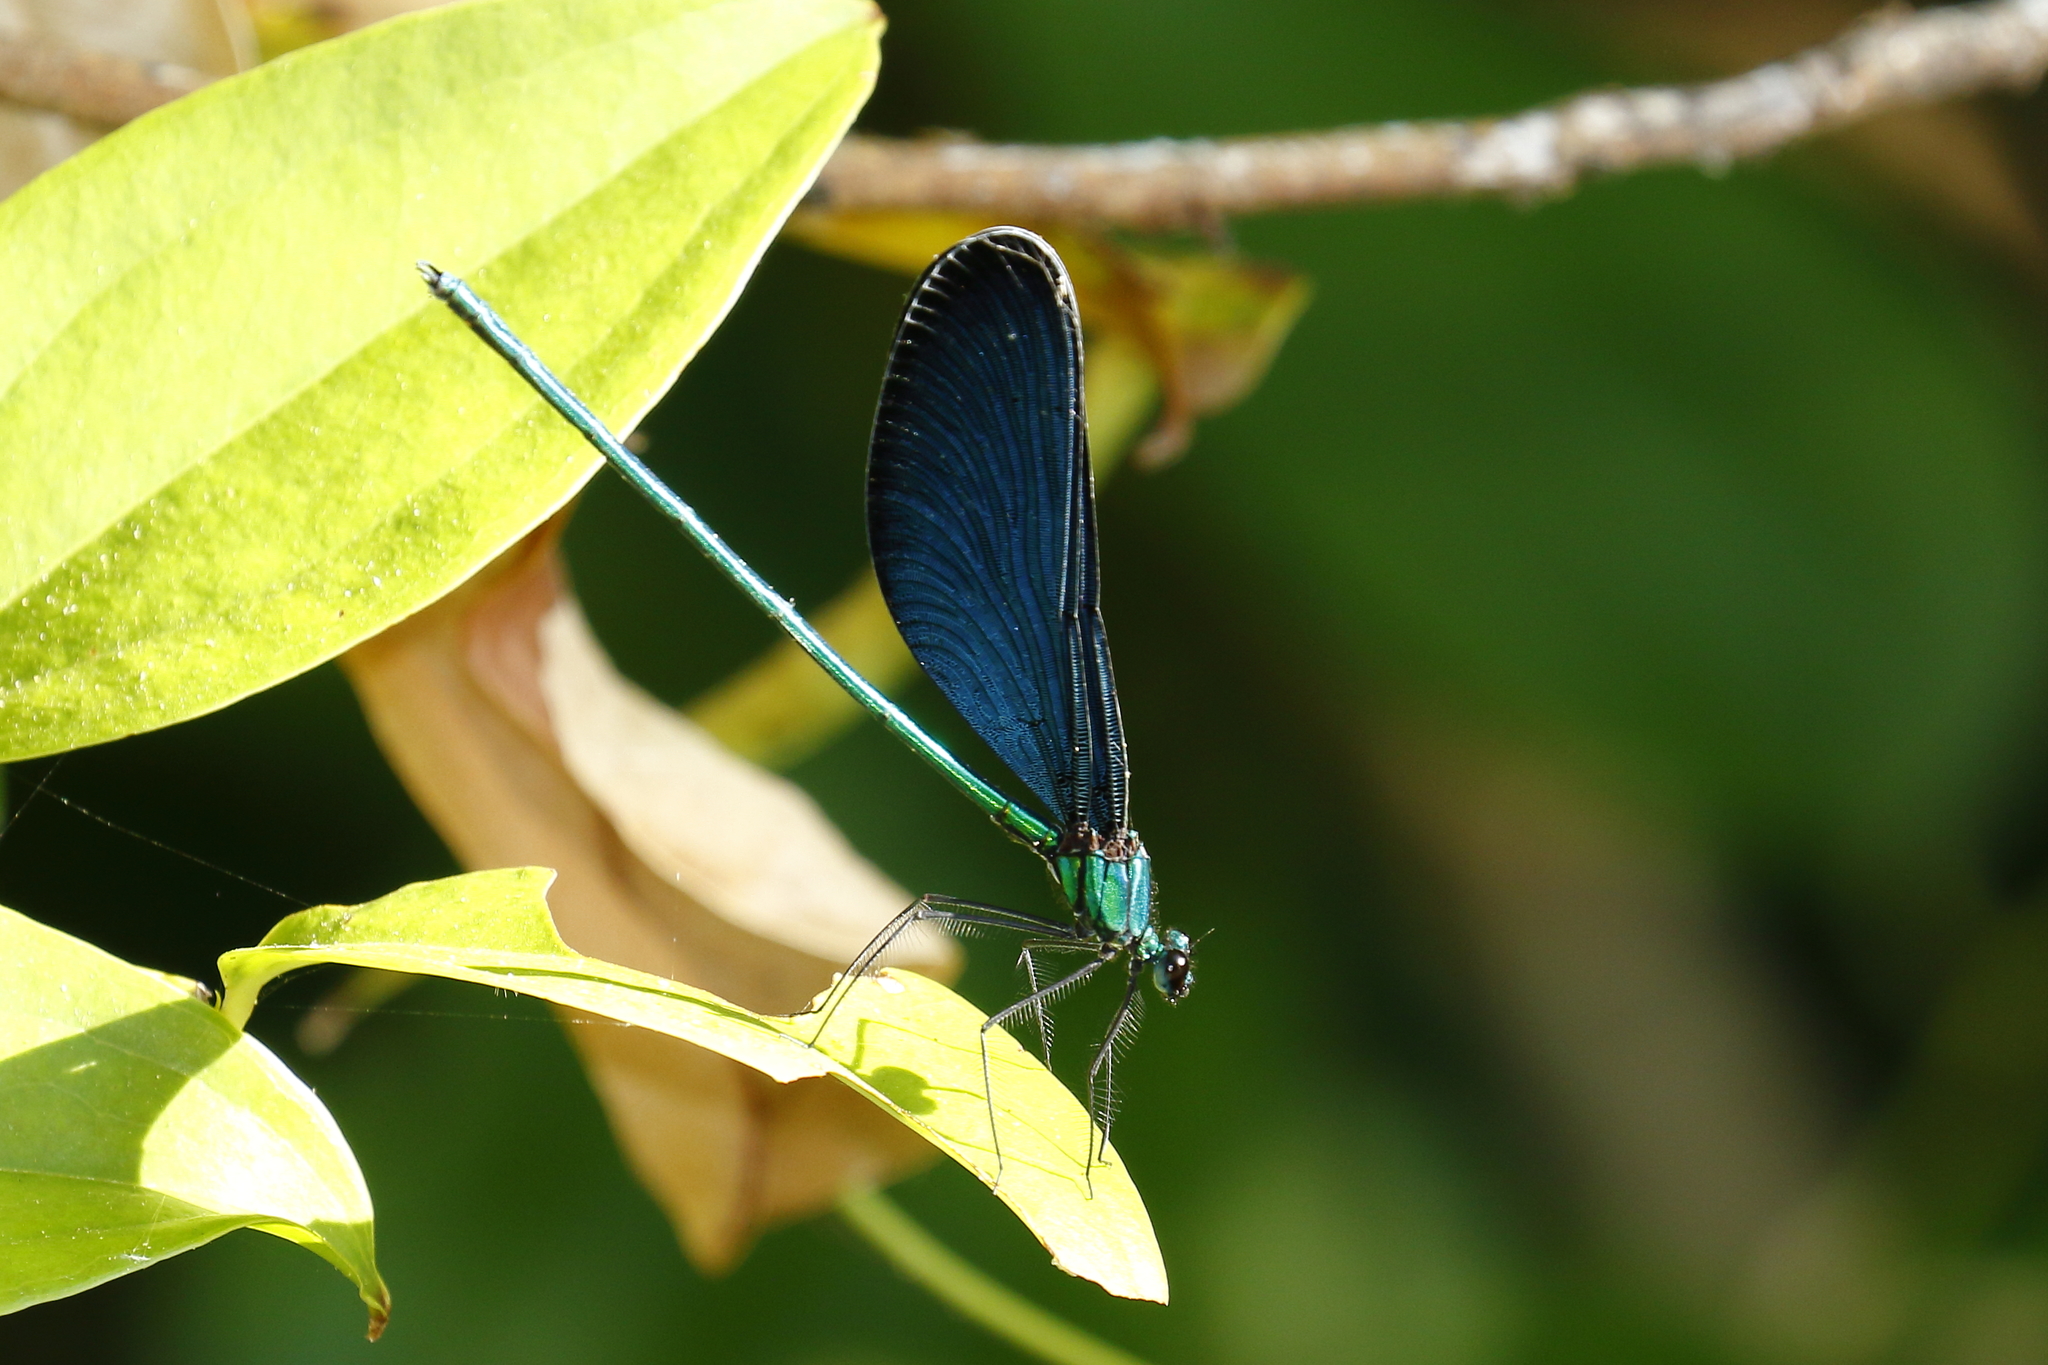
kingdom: Animalia
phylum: Arthropoda
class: Insecta
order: Odonata
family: Calopterygidae
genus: Matrona
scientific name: Matrona cyanoptera
